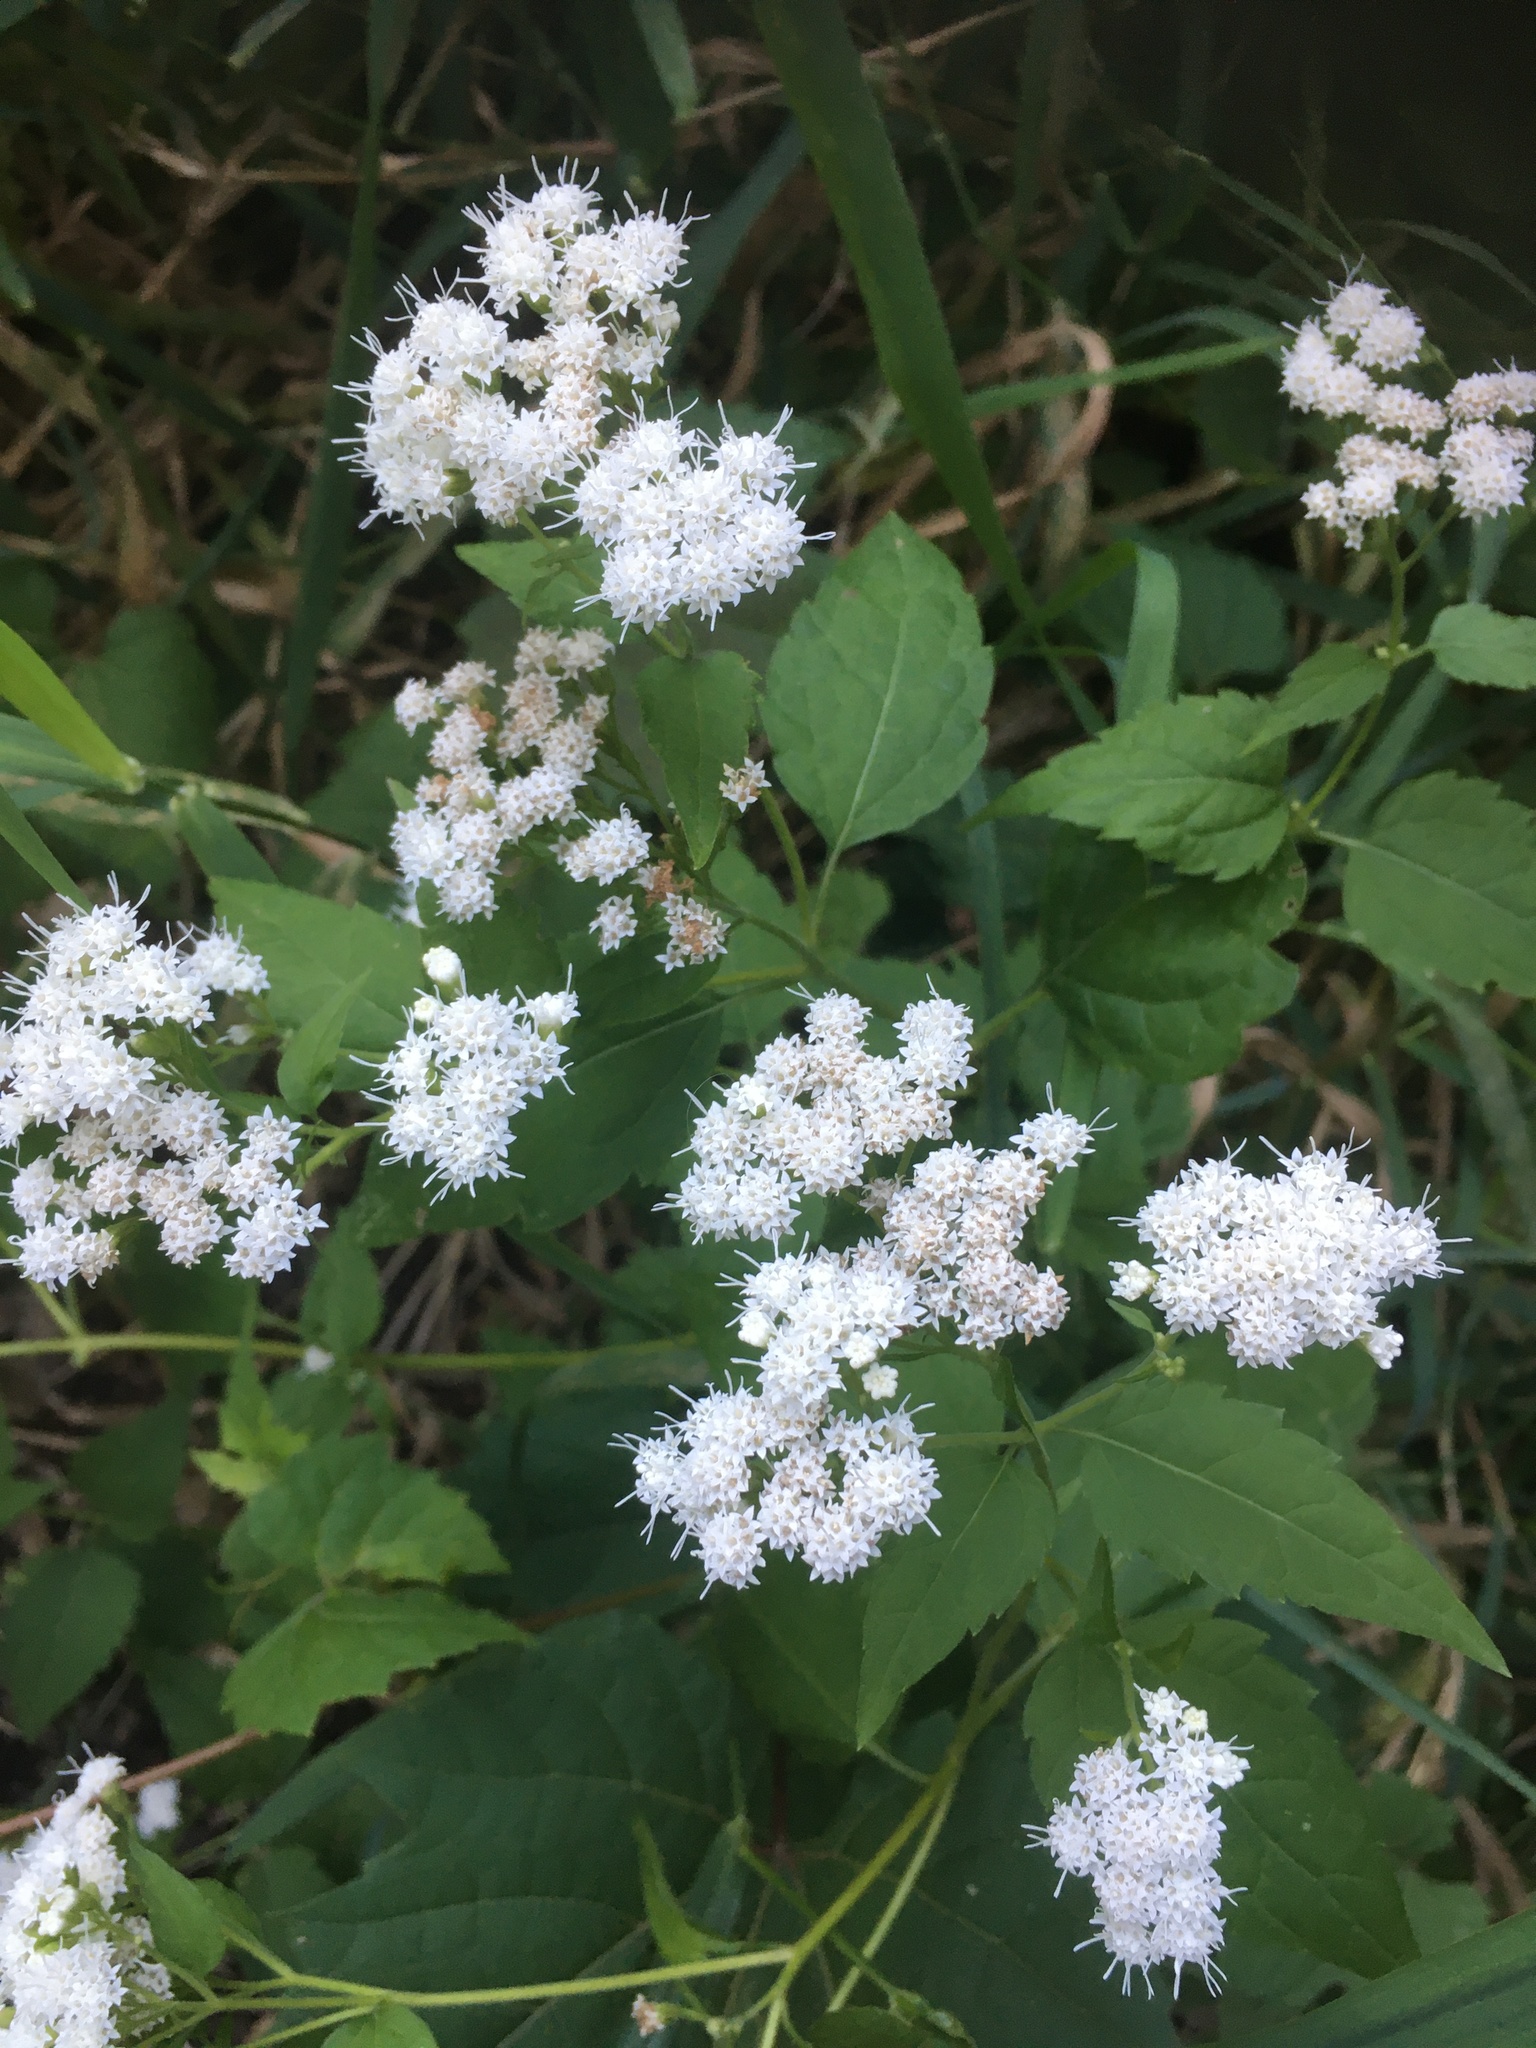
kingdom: Plantae
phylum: Tracheophyta
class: Magnoliopsida
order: Asterales
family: Asteraceae
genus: Ageratina
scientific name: Ageratina altissima
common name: White snakeroot
